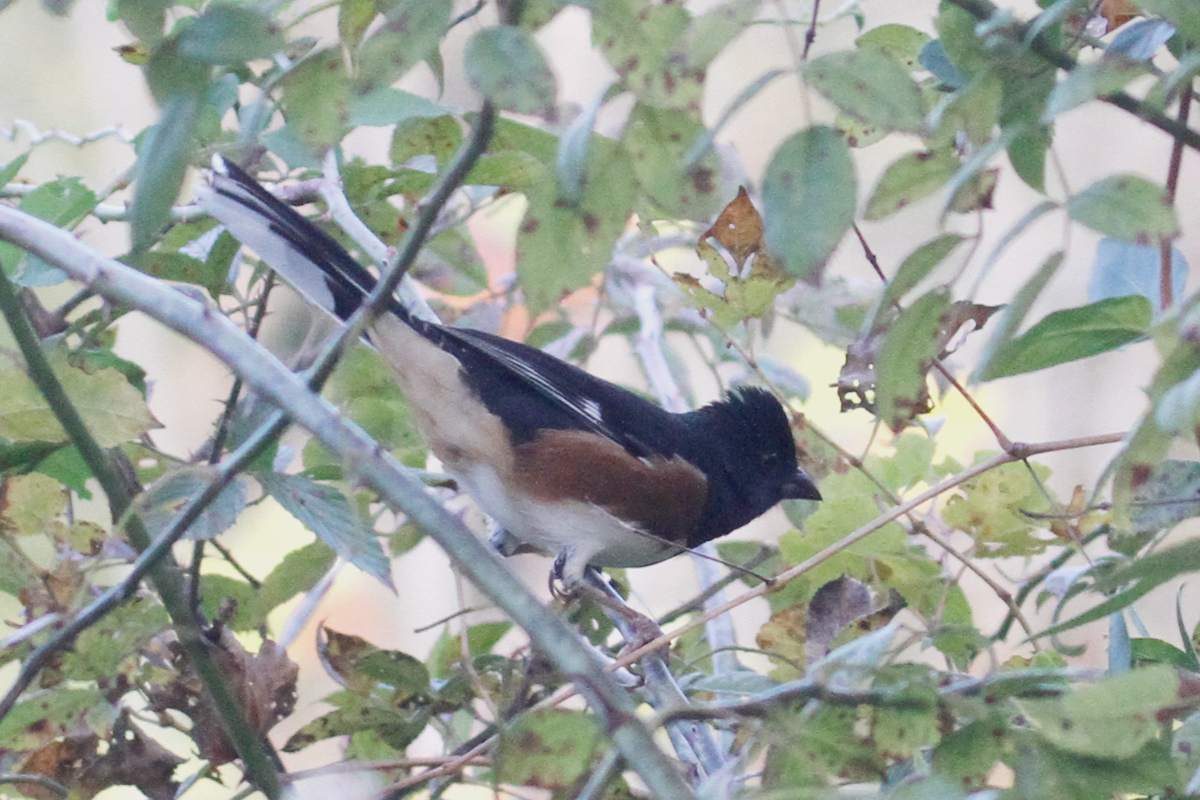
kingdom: Animalia
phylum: Chordata
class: Aves
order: Passeriformes
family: Passerellidae
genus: Pipilo
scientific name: Pipilo erythrophthalmus
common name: Eastern towhee
